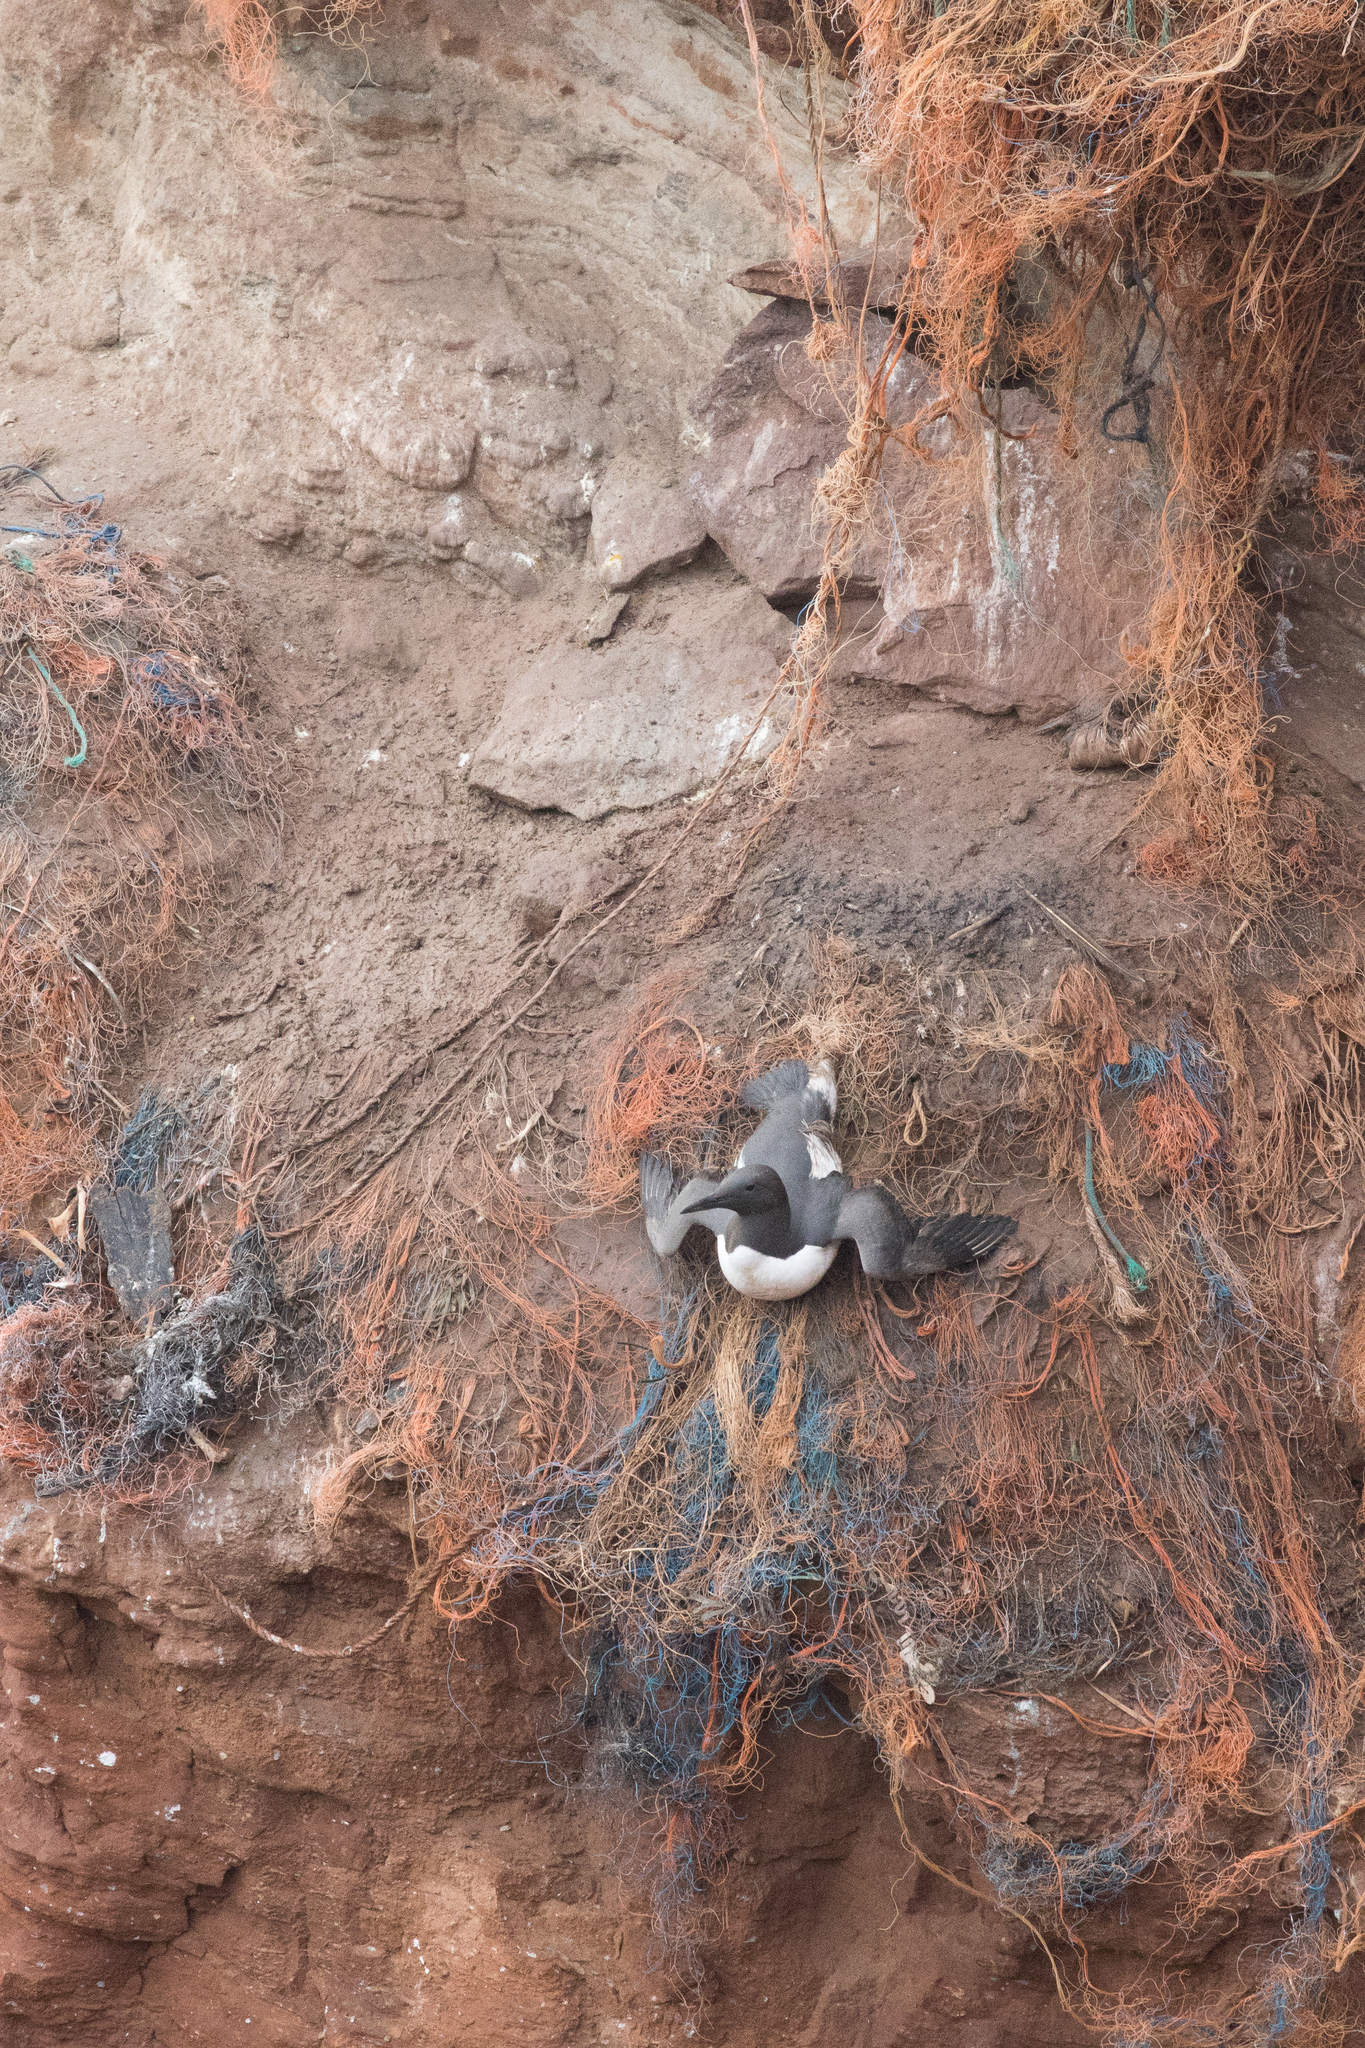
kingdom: Animalia
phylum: Chordata
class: Aves
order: Charadriiformes
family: Alcidae
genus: Uria
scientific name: Uria aalge
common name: Common murre
